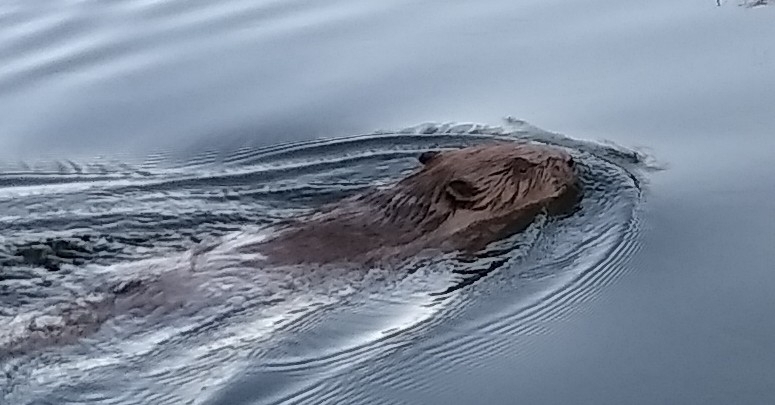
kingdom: Animalia
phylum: Chordata
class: Mammalia
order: Rodentia
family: Castoridae
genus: Castor
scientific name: Castor fiber
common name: Eurasian beaver
